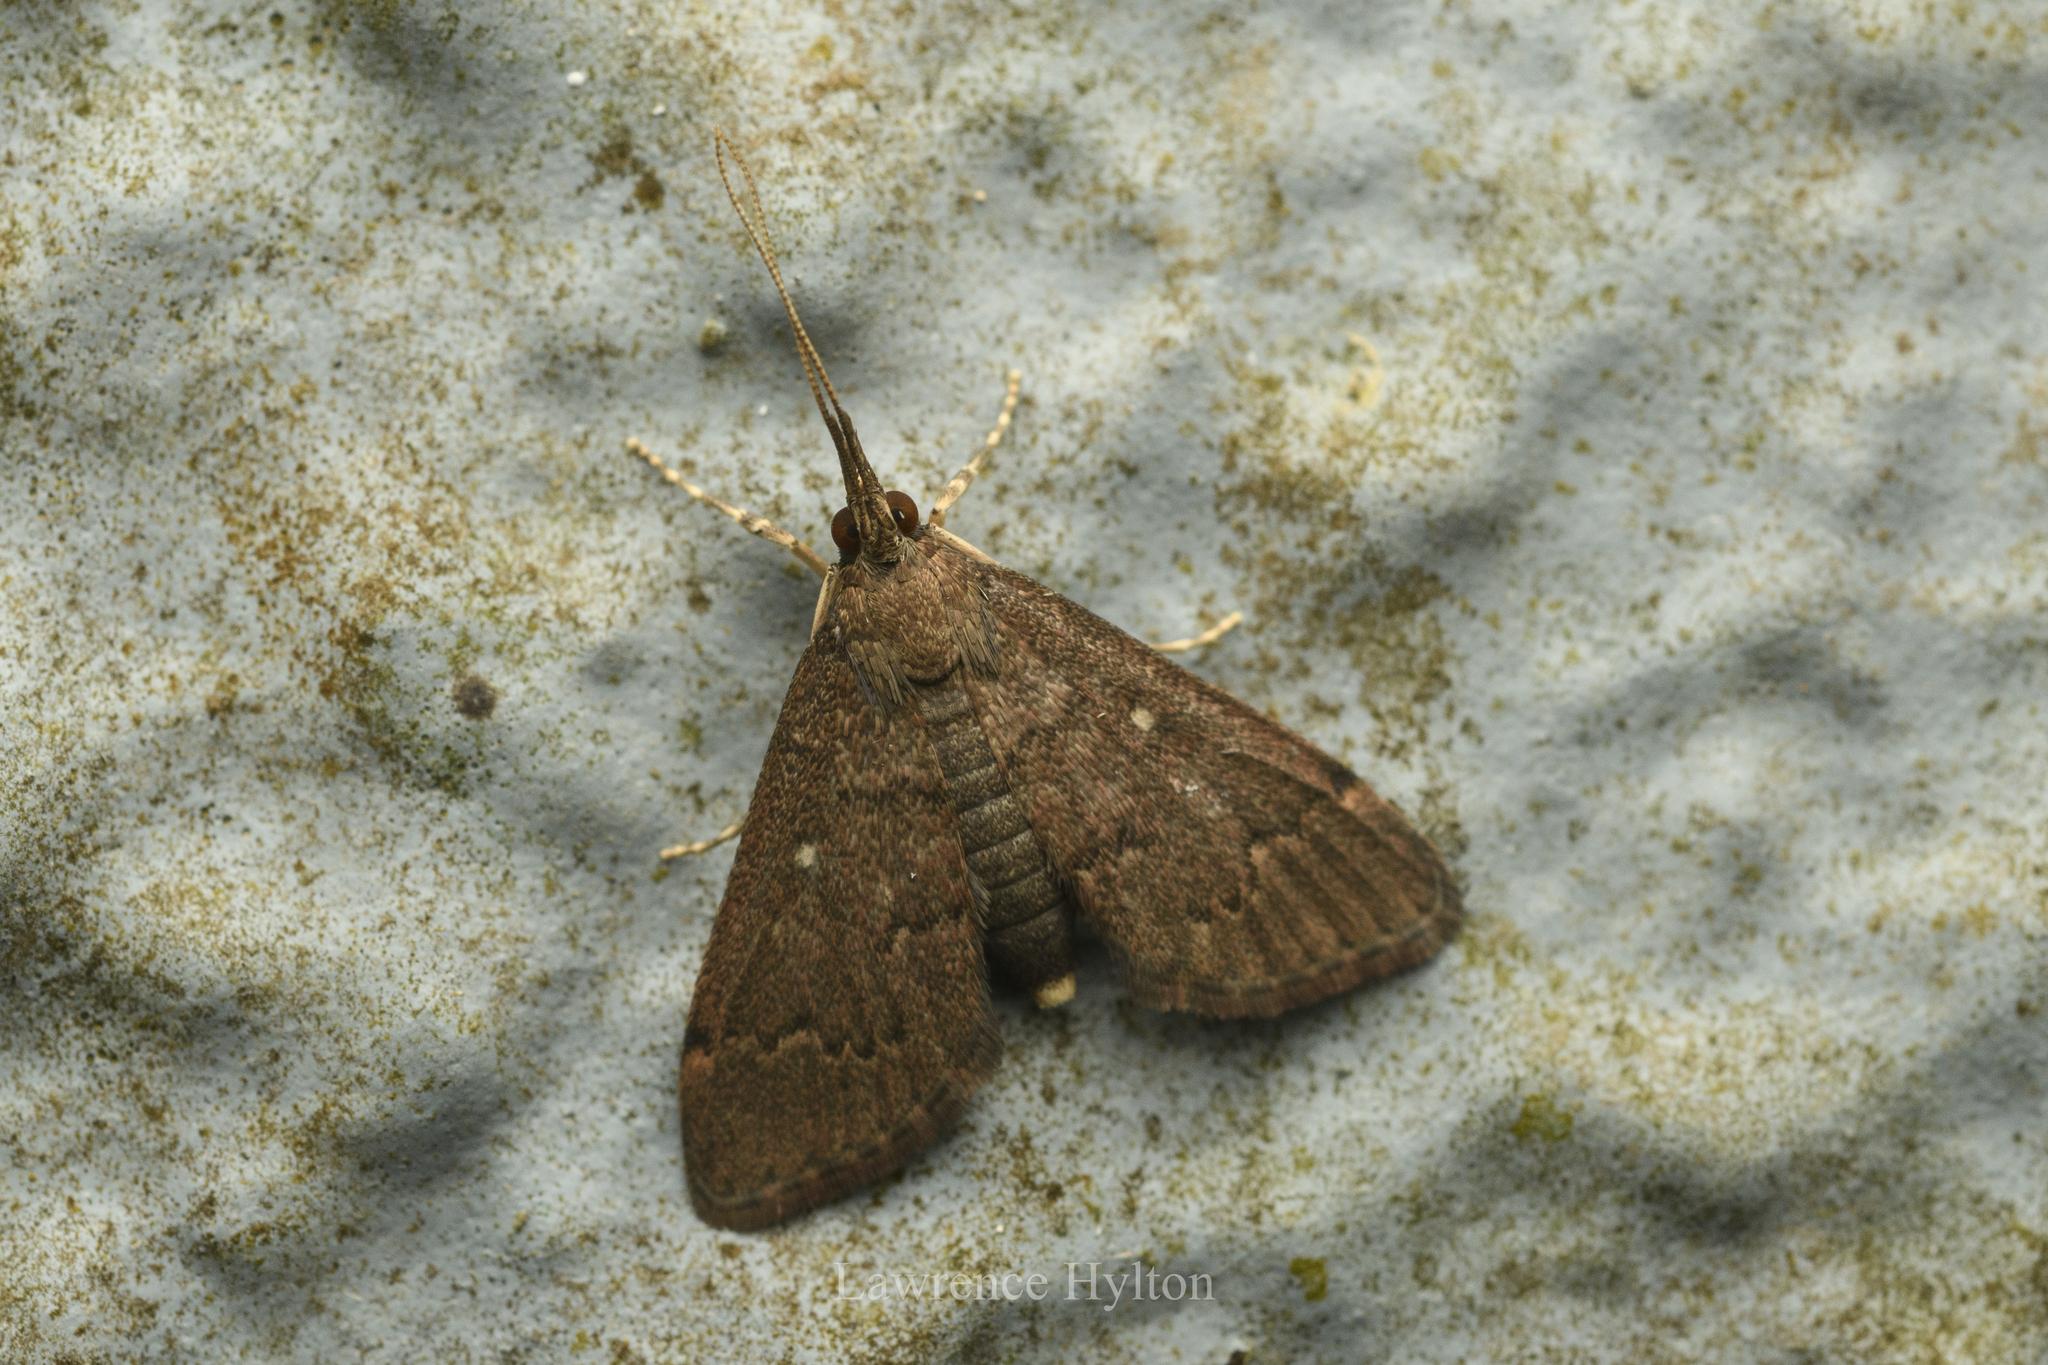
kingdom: Animalia
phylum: Arthropoda
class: Insecta
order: Lepidoptera
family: Crambidae
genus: Camptomastix
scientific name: Camptomastix hisbonalis
